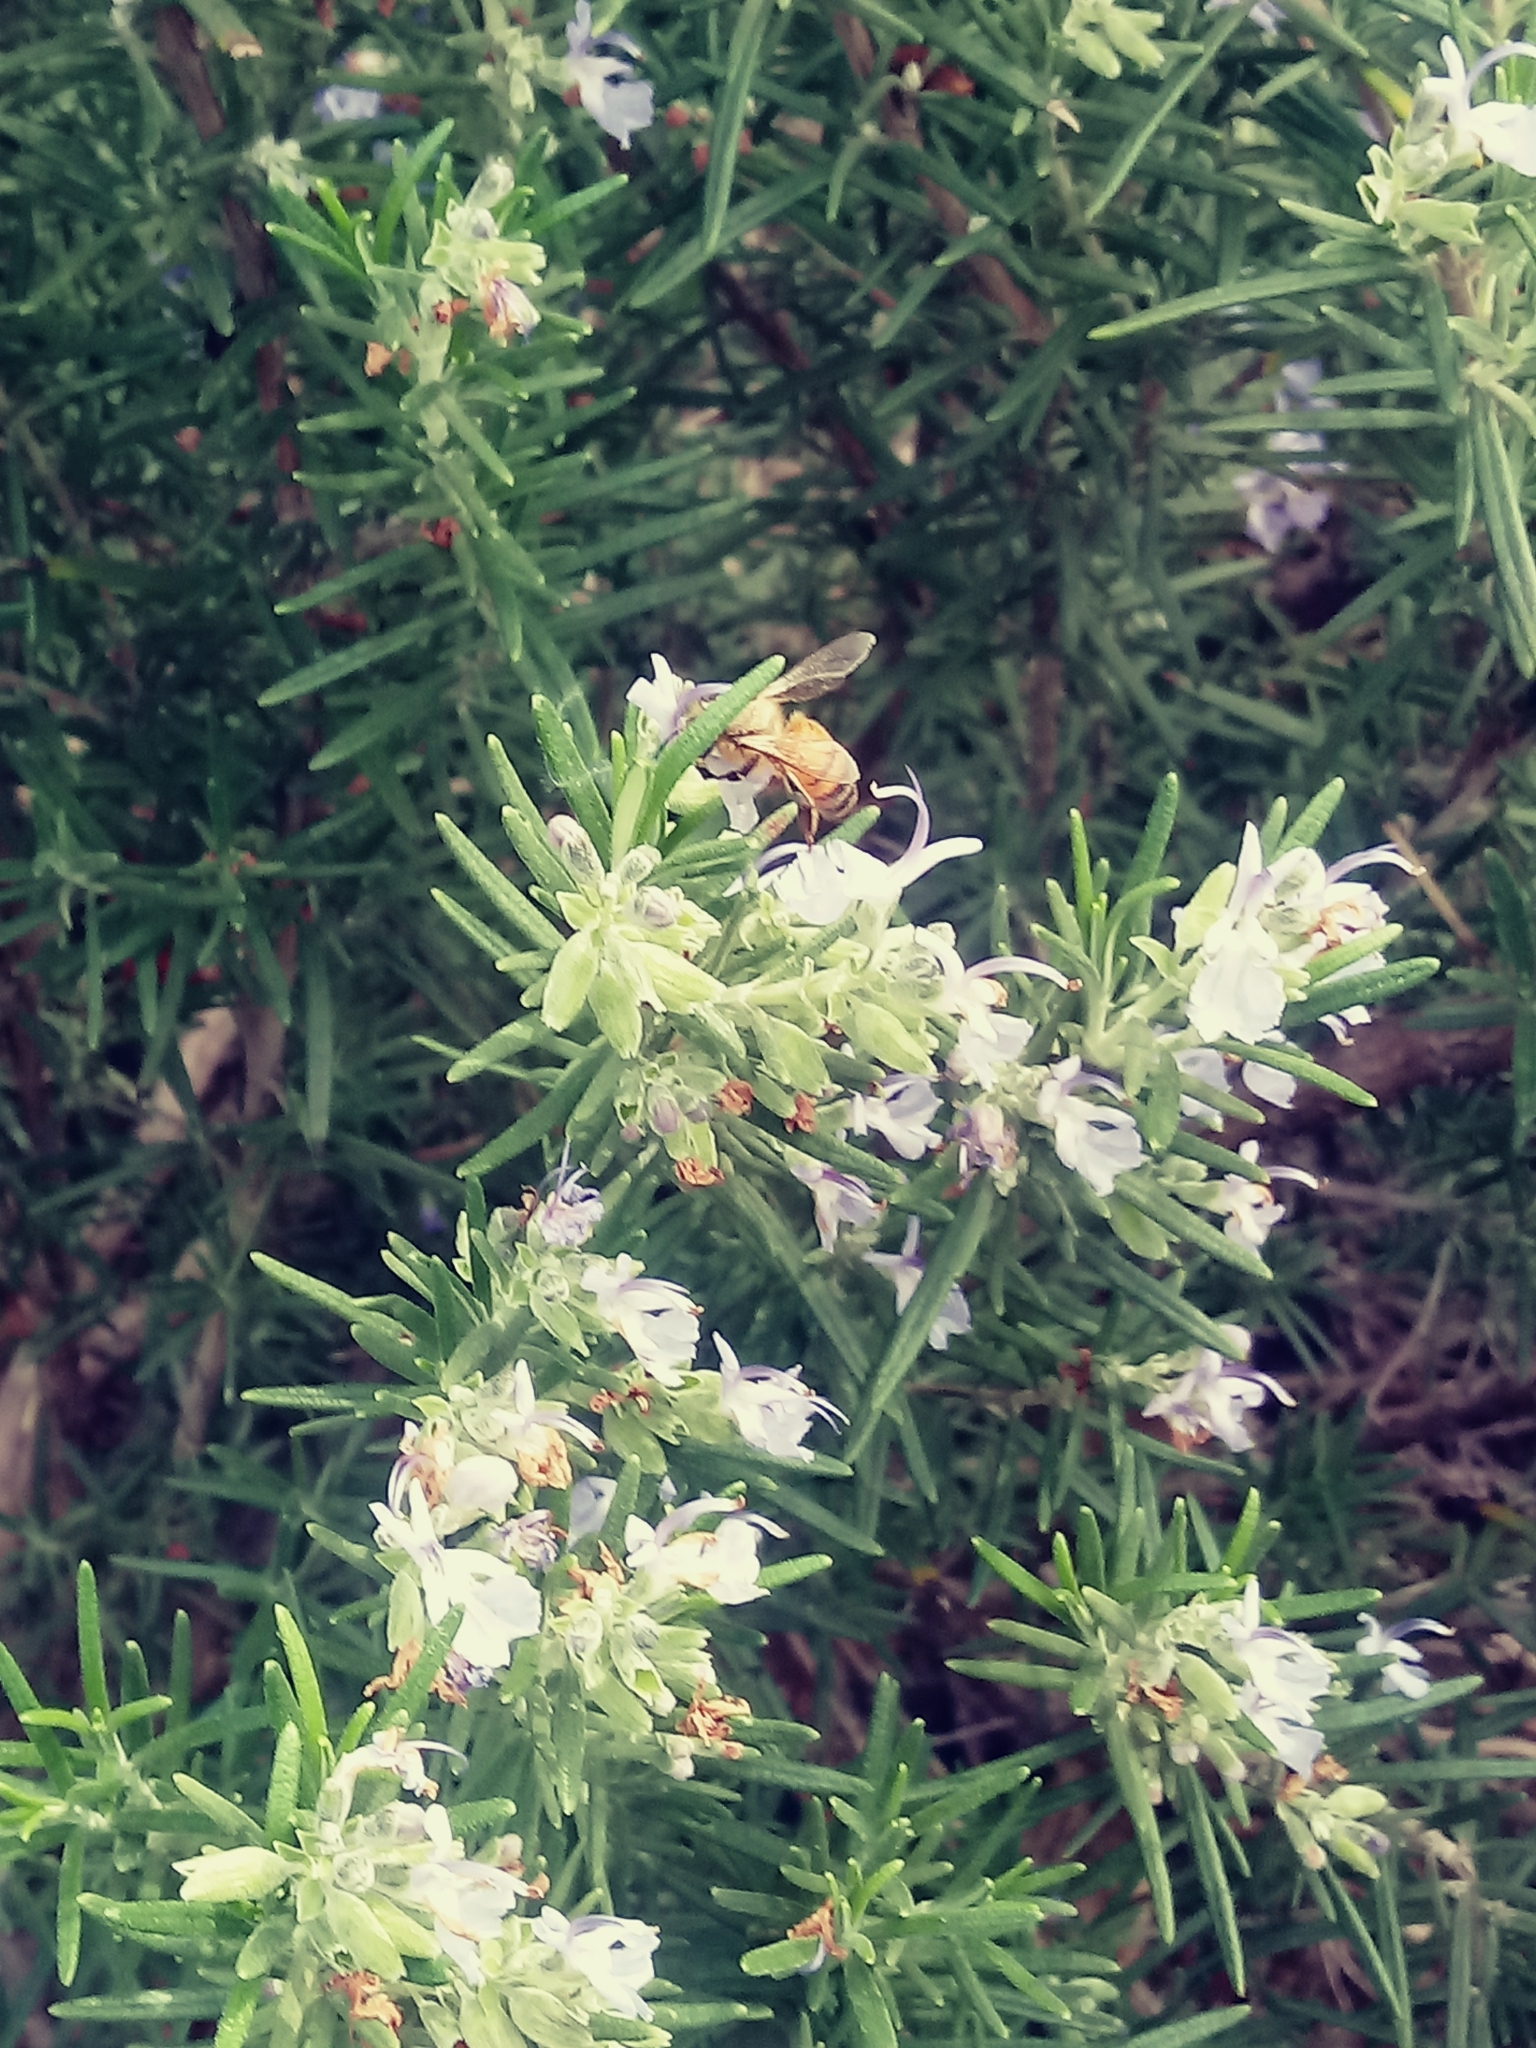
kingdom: Animalia
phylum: Arthropoda
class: Insecta
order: Hymenoptera
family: Apidae
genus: Apis
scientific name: Apis mellifera
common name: Honey bee
